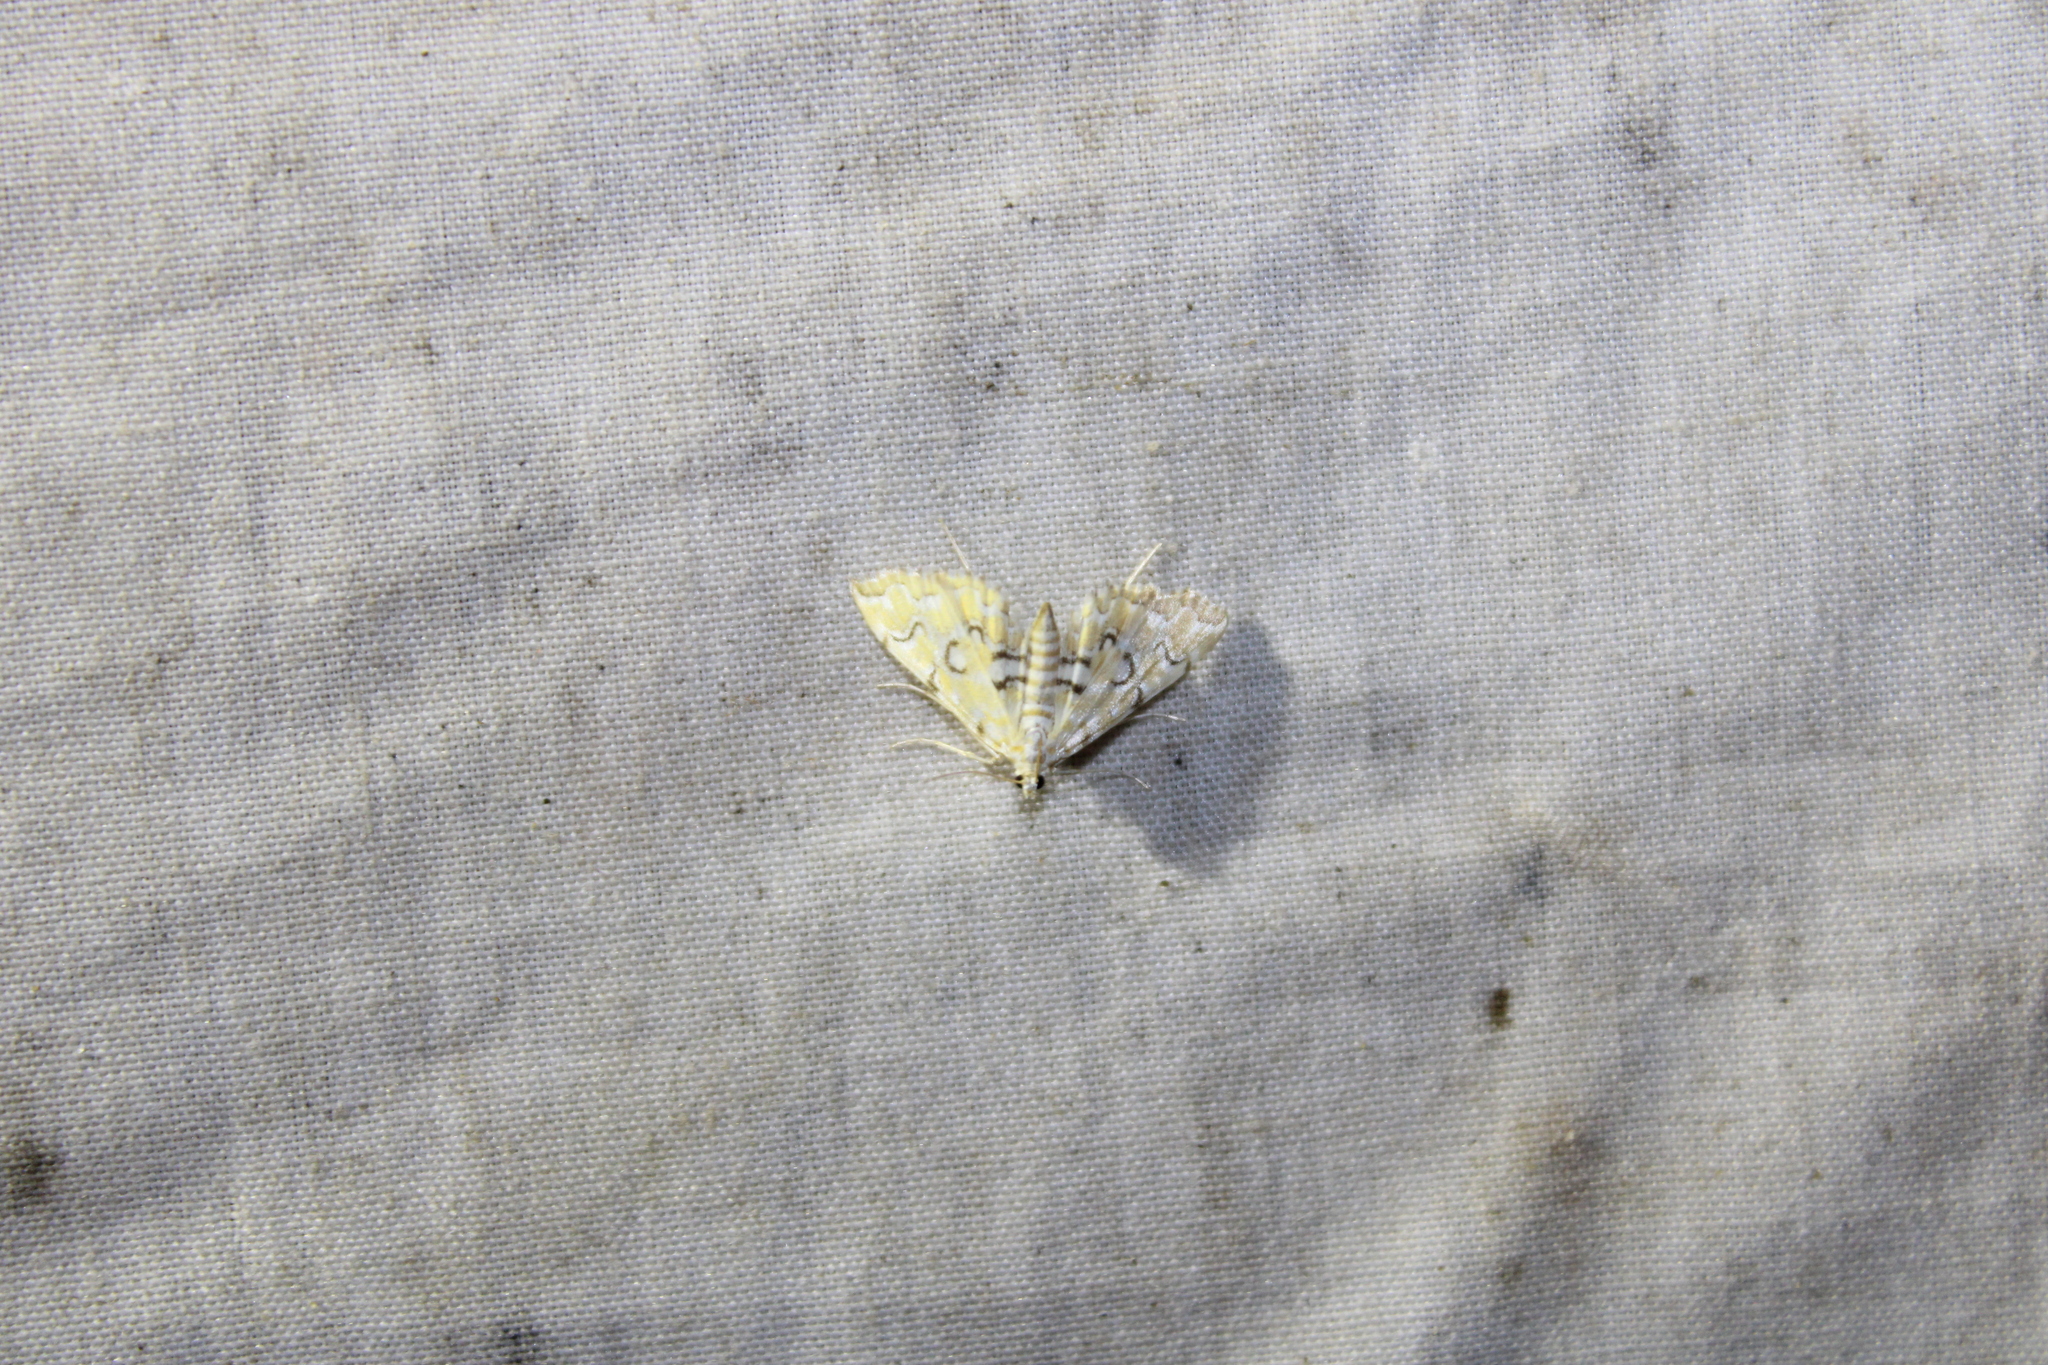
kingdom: Animalia
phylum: Arthropoda
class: Insecta
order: Lepidoptera
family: Crambidae
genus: Elophila
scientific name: Elophila icciusalis
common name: Pondside pyralid moth
